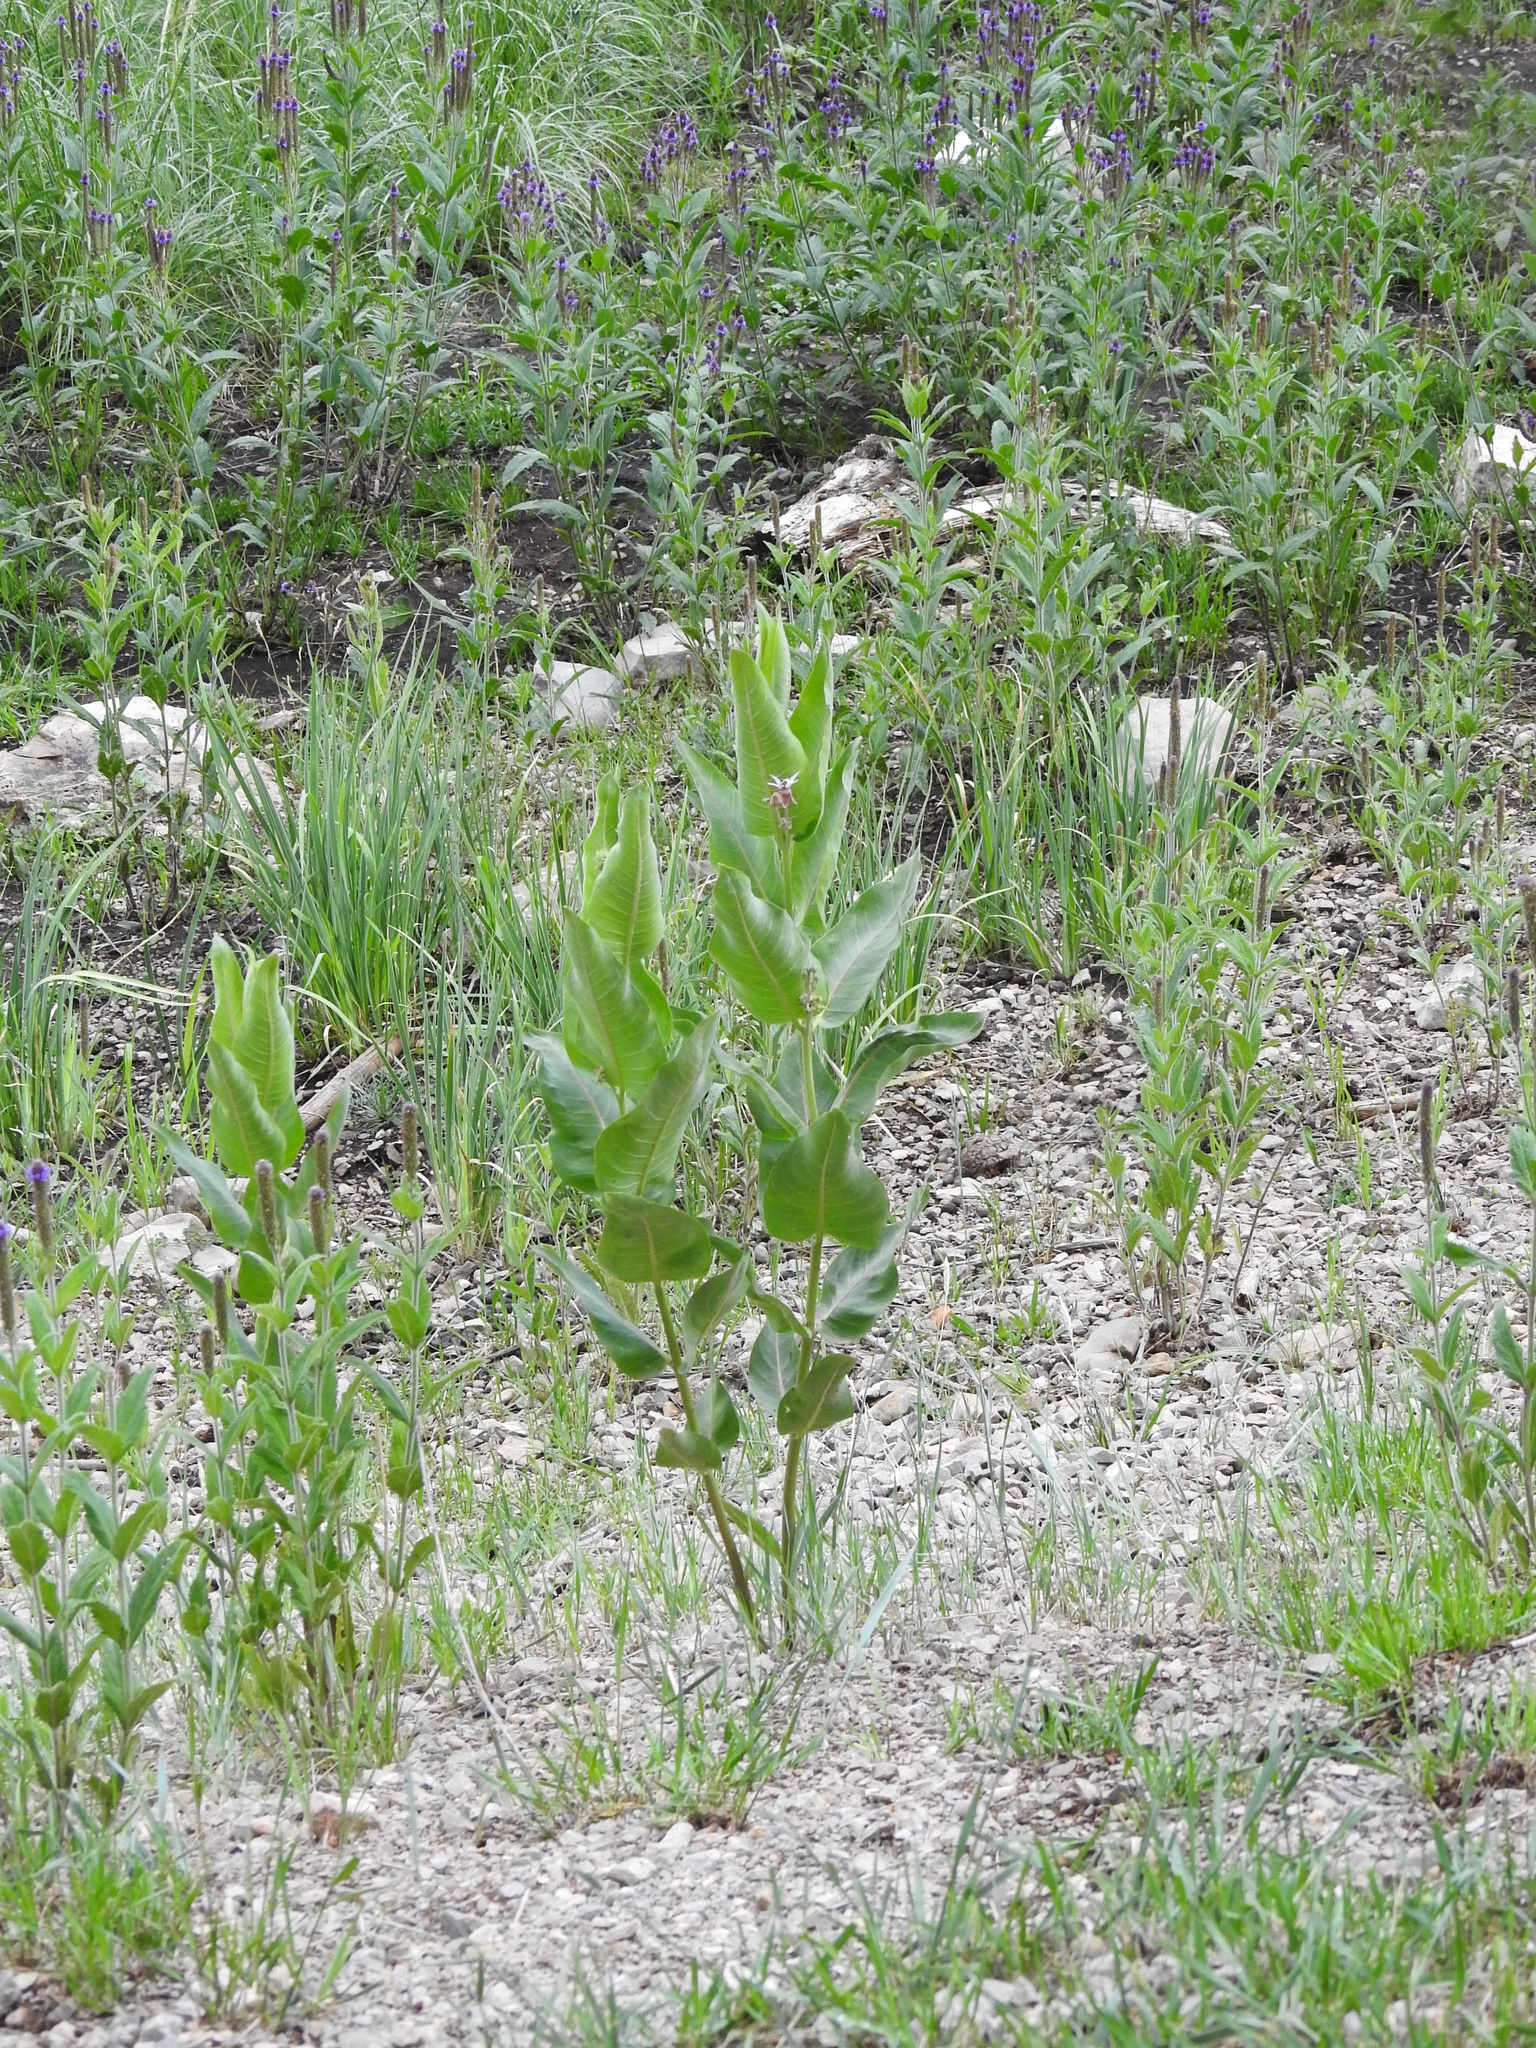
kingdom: Plantae
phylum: Tracheophyta
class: Magnoliopsida
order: Gentianales
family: Apocynaceae
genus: Asclepias
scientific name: Asclepias speciosa
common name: Showy milkweed
